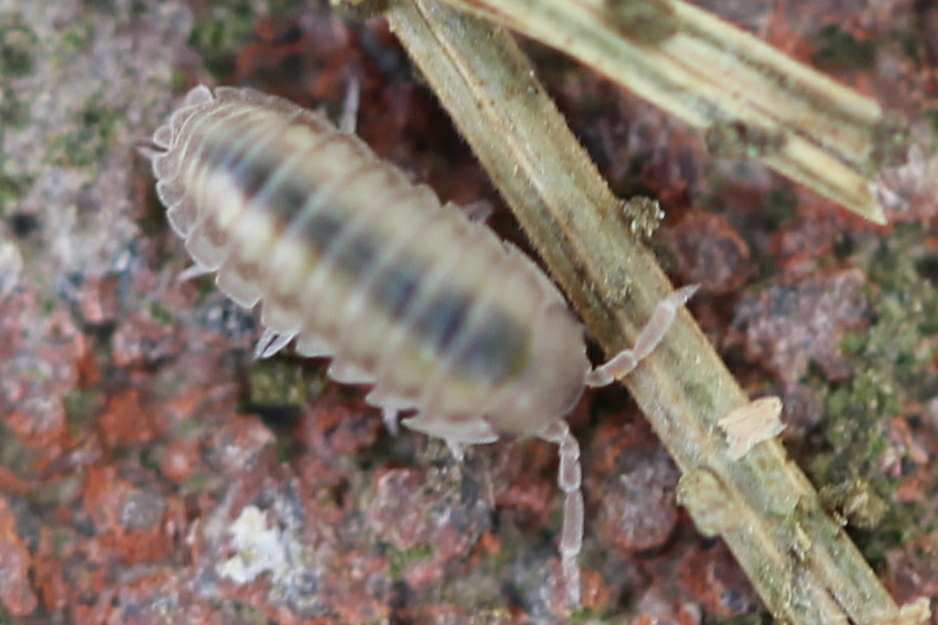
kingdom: Animalia
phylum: Arthropoda
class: Malacostraca
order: Isopoda
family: Armadillidiidae
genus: Armadillidium
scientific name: Armadillidium nasatum
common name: Isopod
